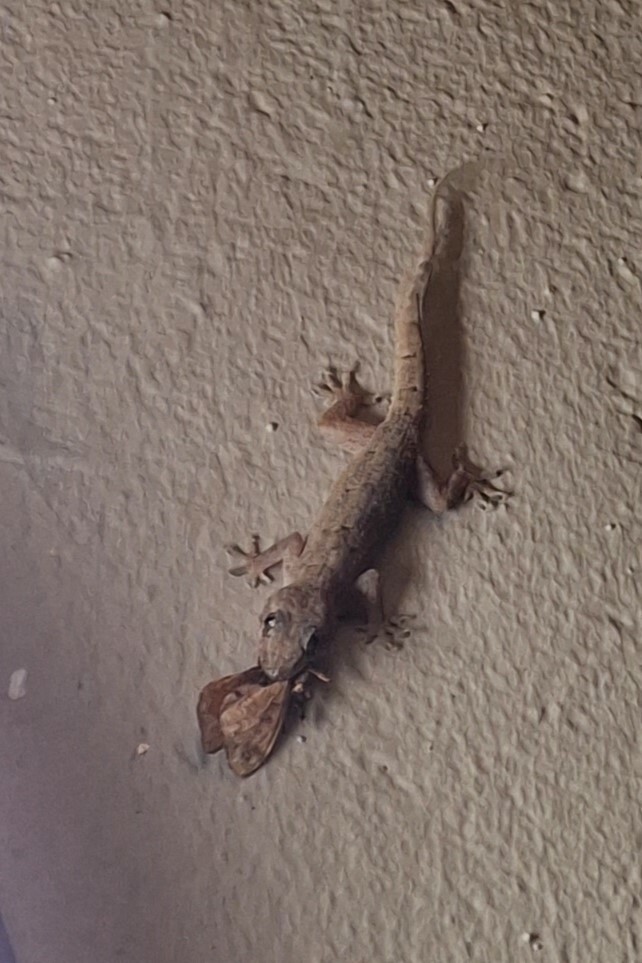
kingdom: Animalia
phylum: Chordata
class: Squamata
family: Gekkonidae
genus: Hemidactylus
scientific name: Hemidactylus mabouia
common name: House gecko
